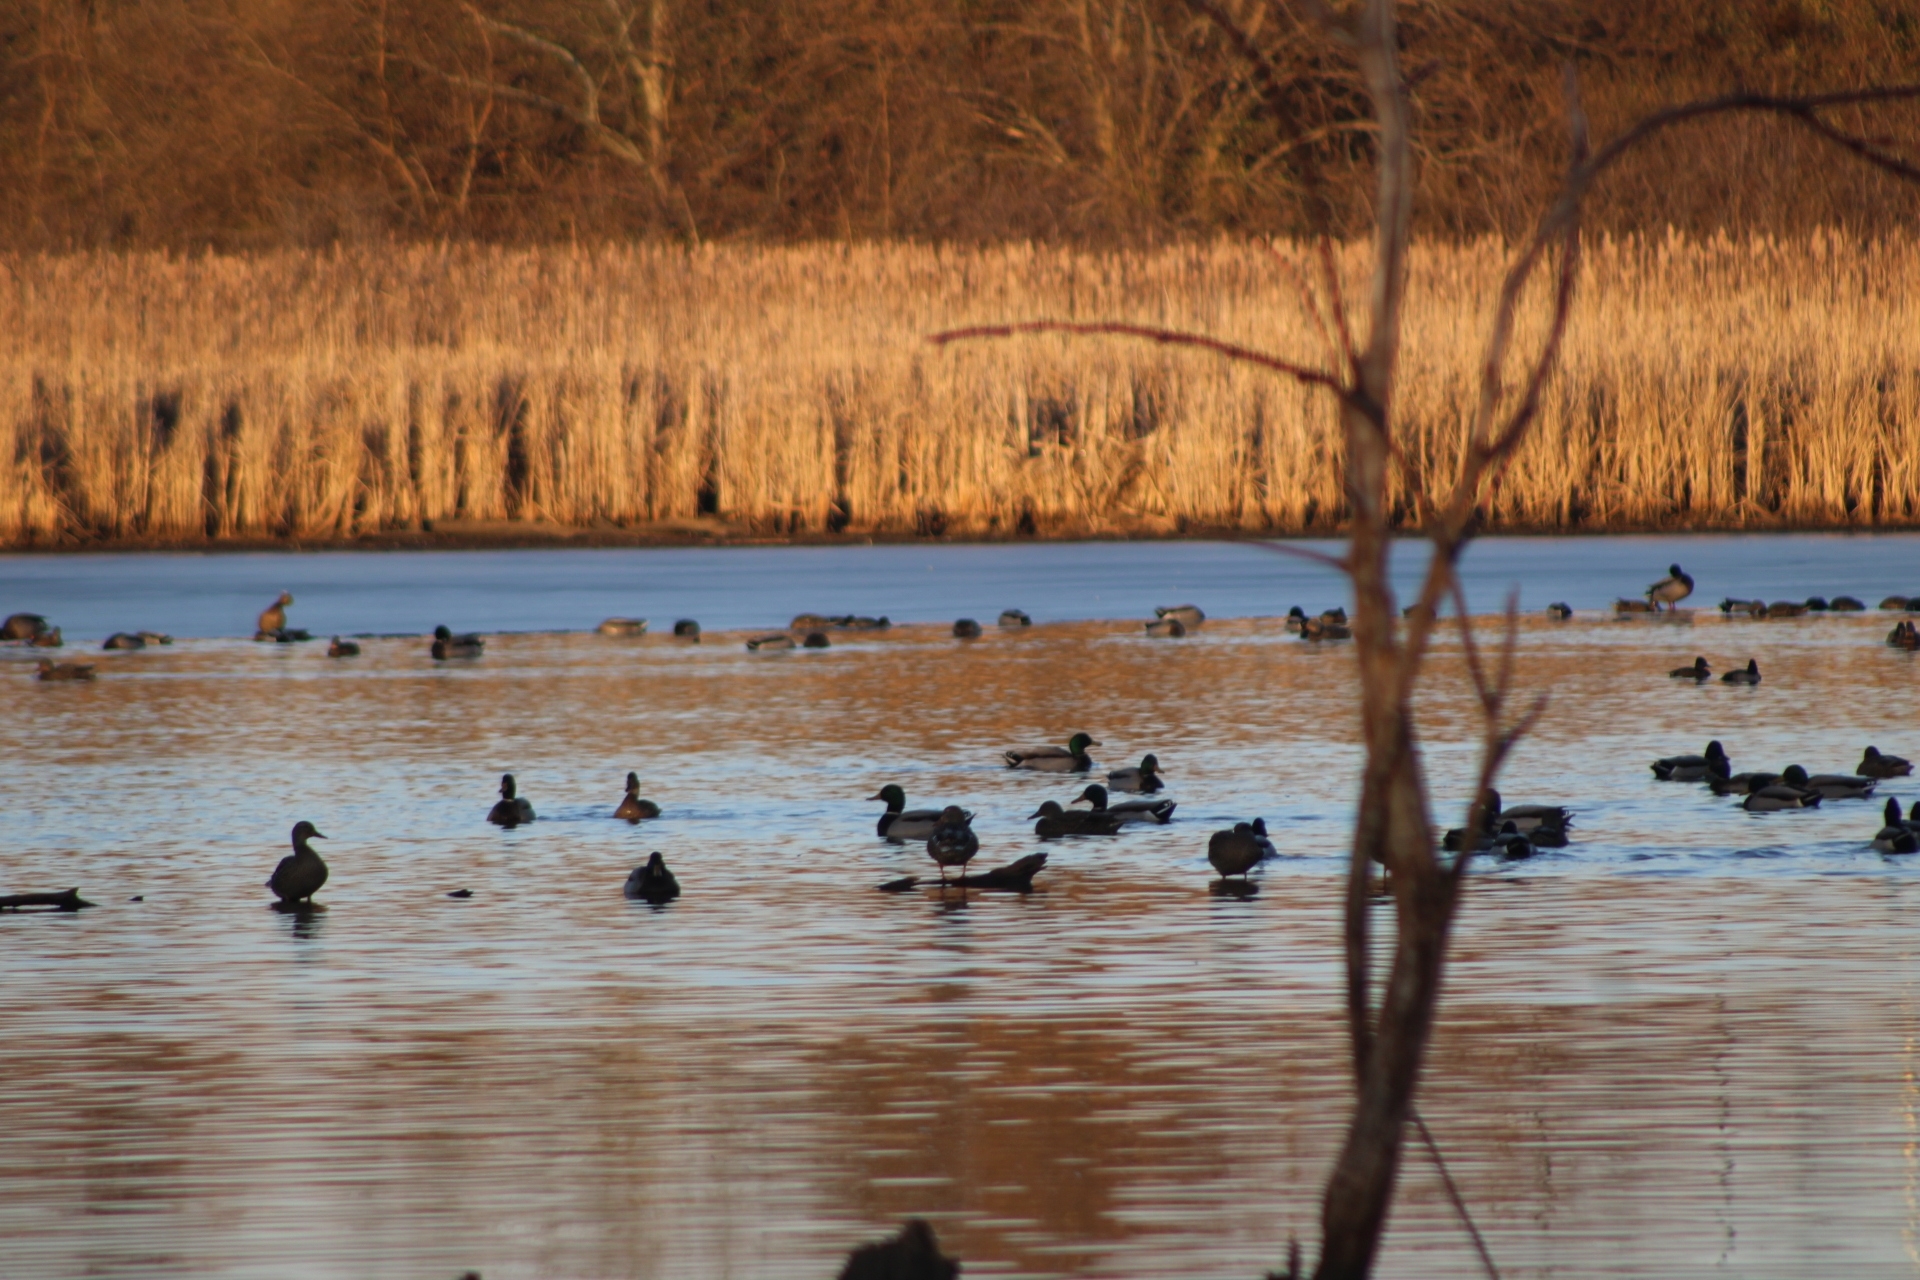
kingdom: Animalia
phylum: Chordata
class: Aves
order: Anseriformes
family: Anatidae
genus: Anas
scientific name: Anas platyrhynchos
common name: Mallard
